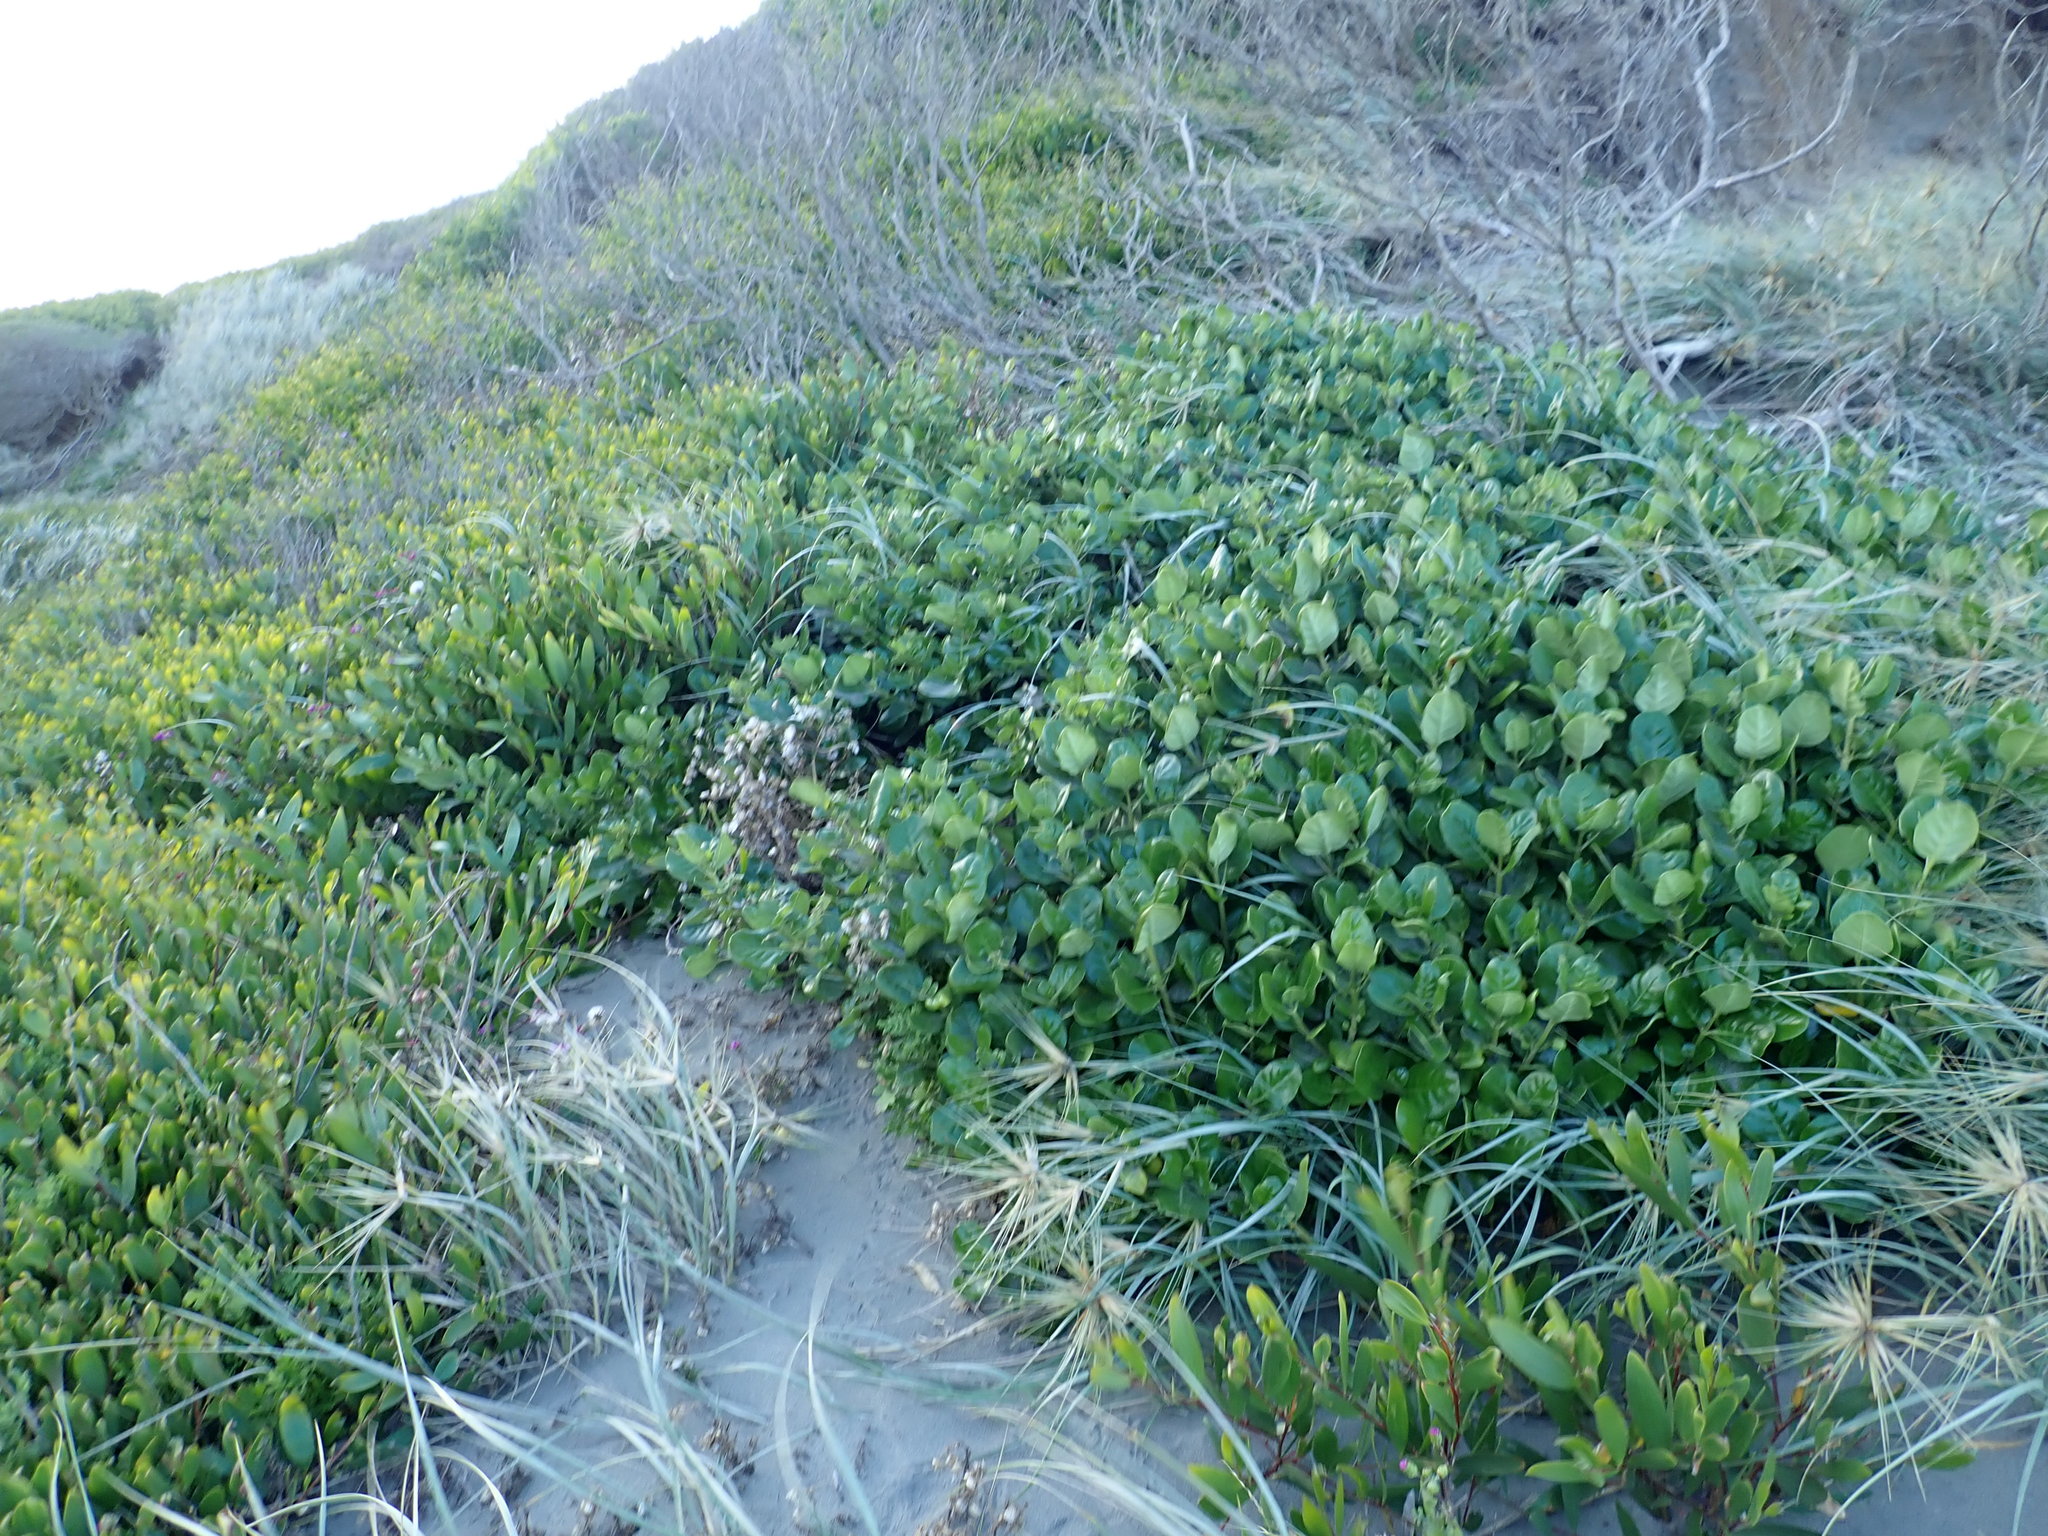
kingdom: Plantae
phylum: Tracheophyta
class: Magnoliopsida
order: Gentianales
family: Rubiaceae
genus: Coprosma
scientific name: Coprosma repens
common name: Tree bedstraw
